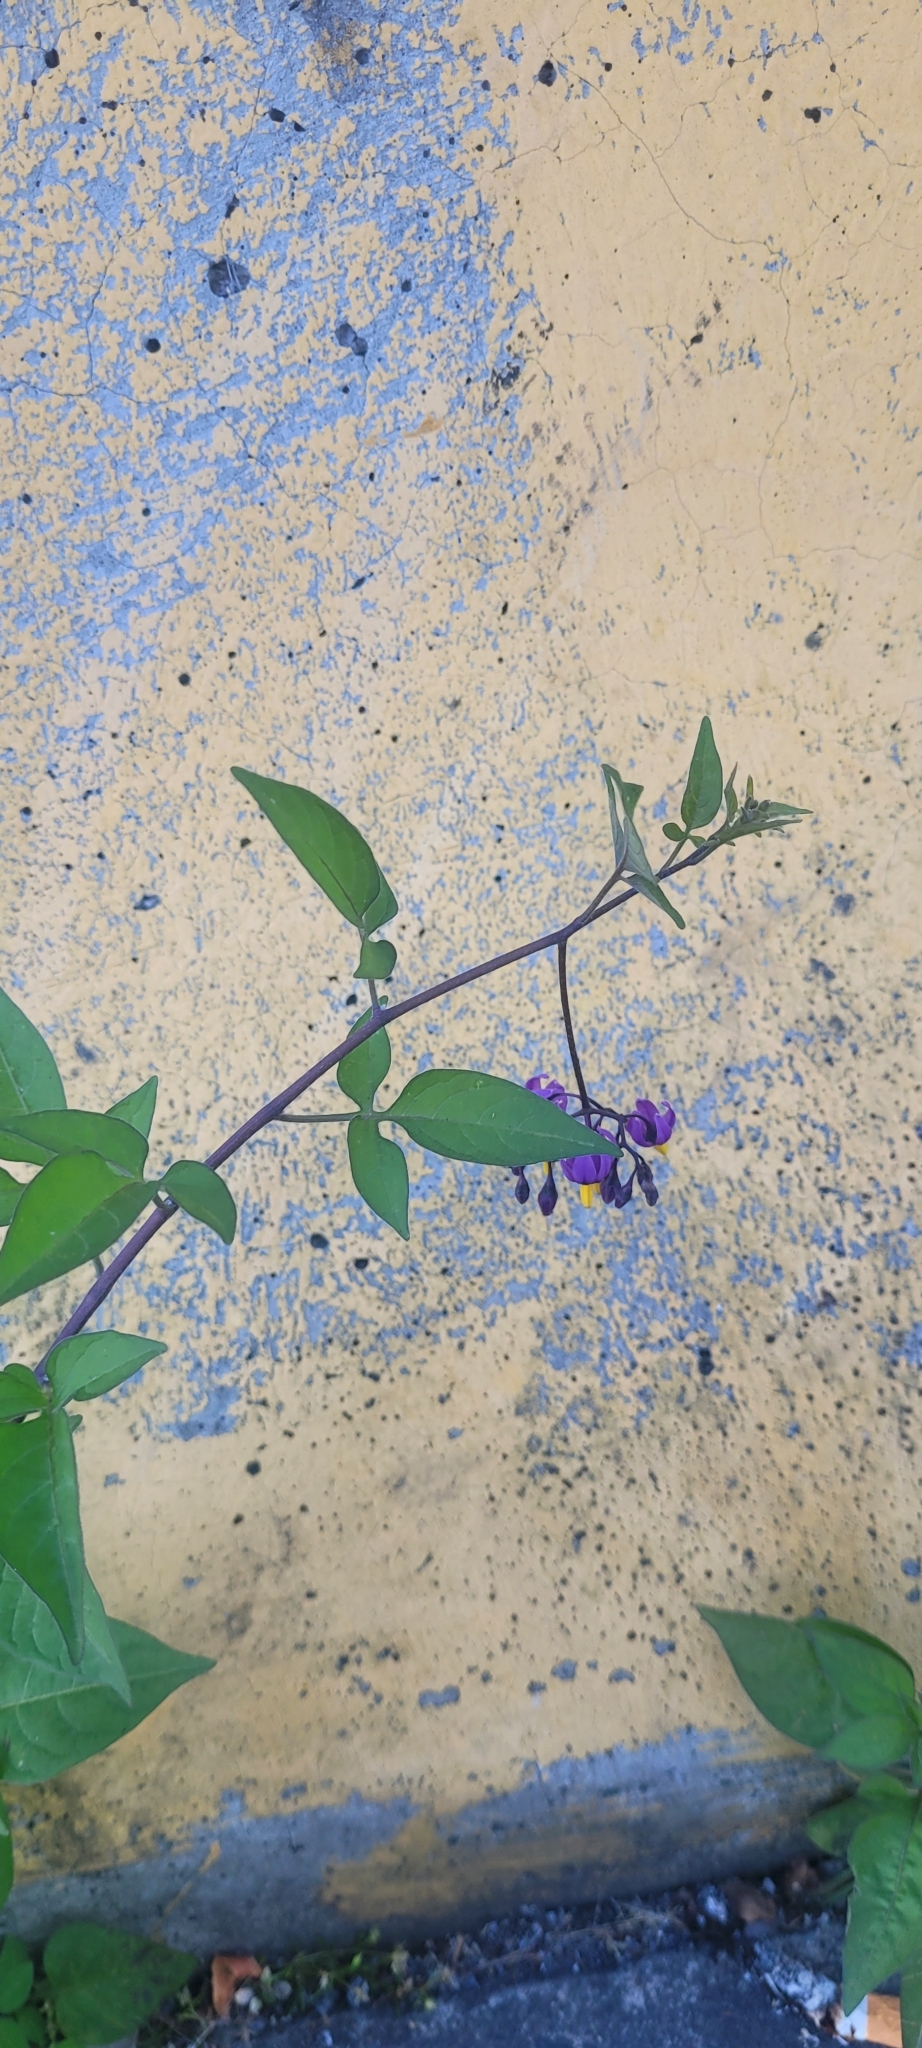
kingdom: Plantae
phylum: Tracheophyta
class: Magnoliopsida
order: Solanales
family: Solanaceae
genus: Solanum
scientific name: Solanum dulcamara
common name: Climbing nightshade
